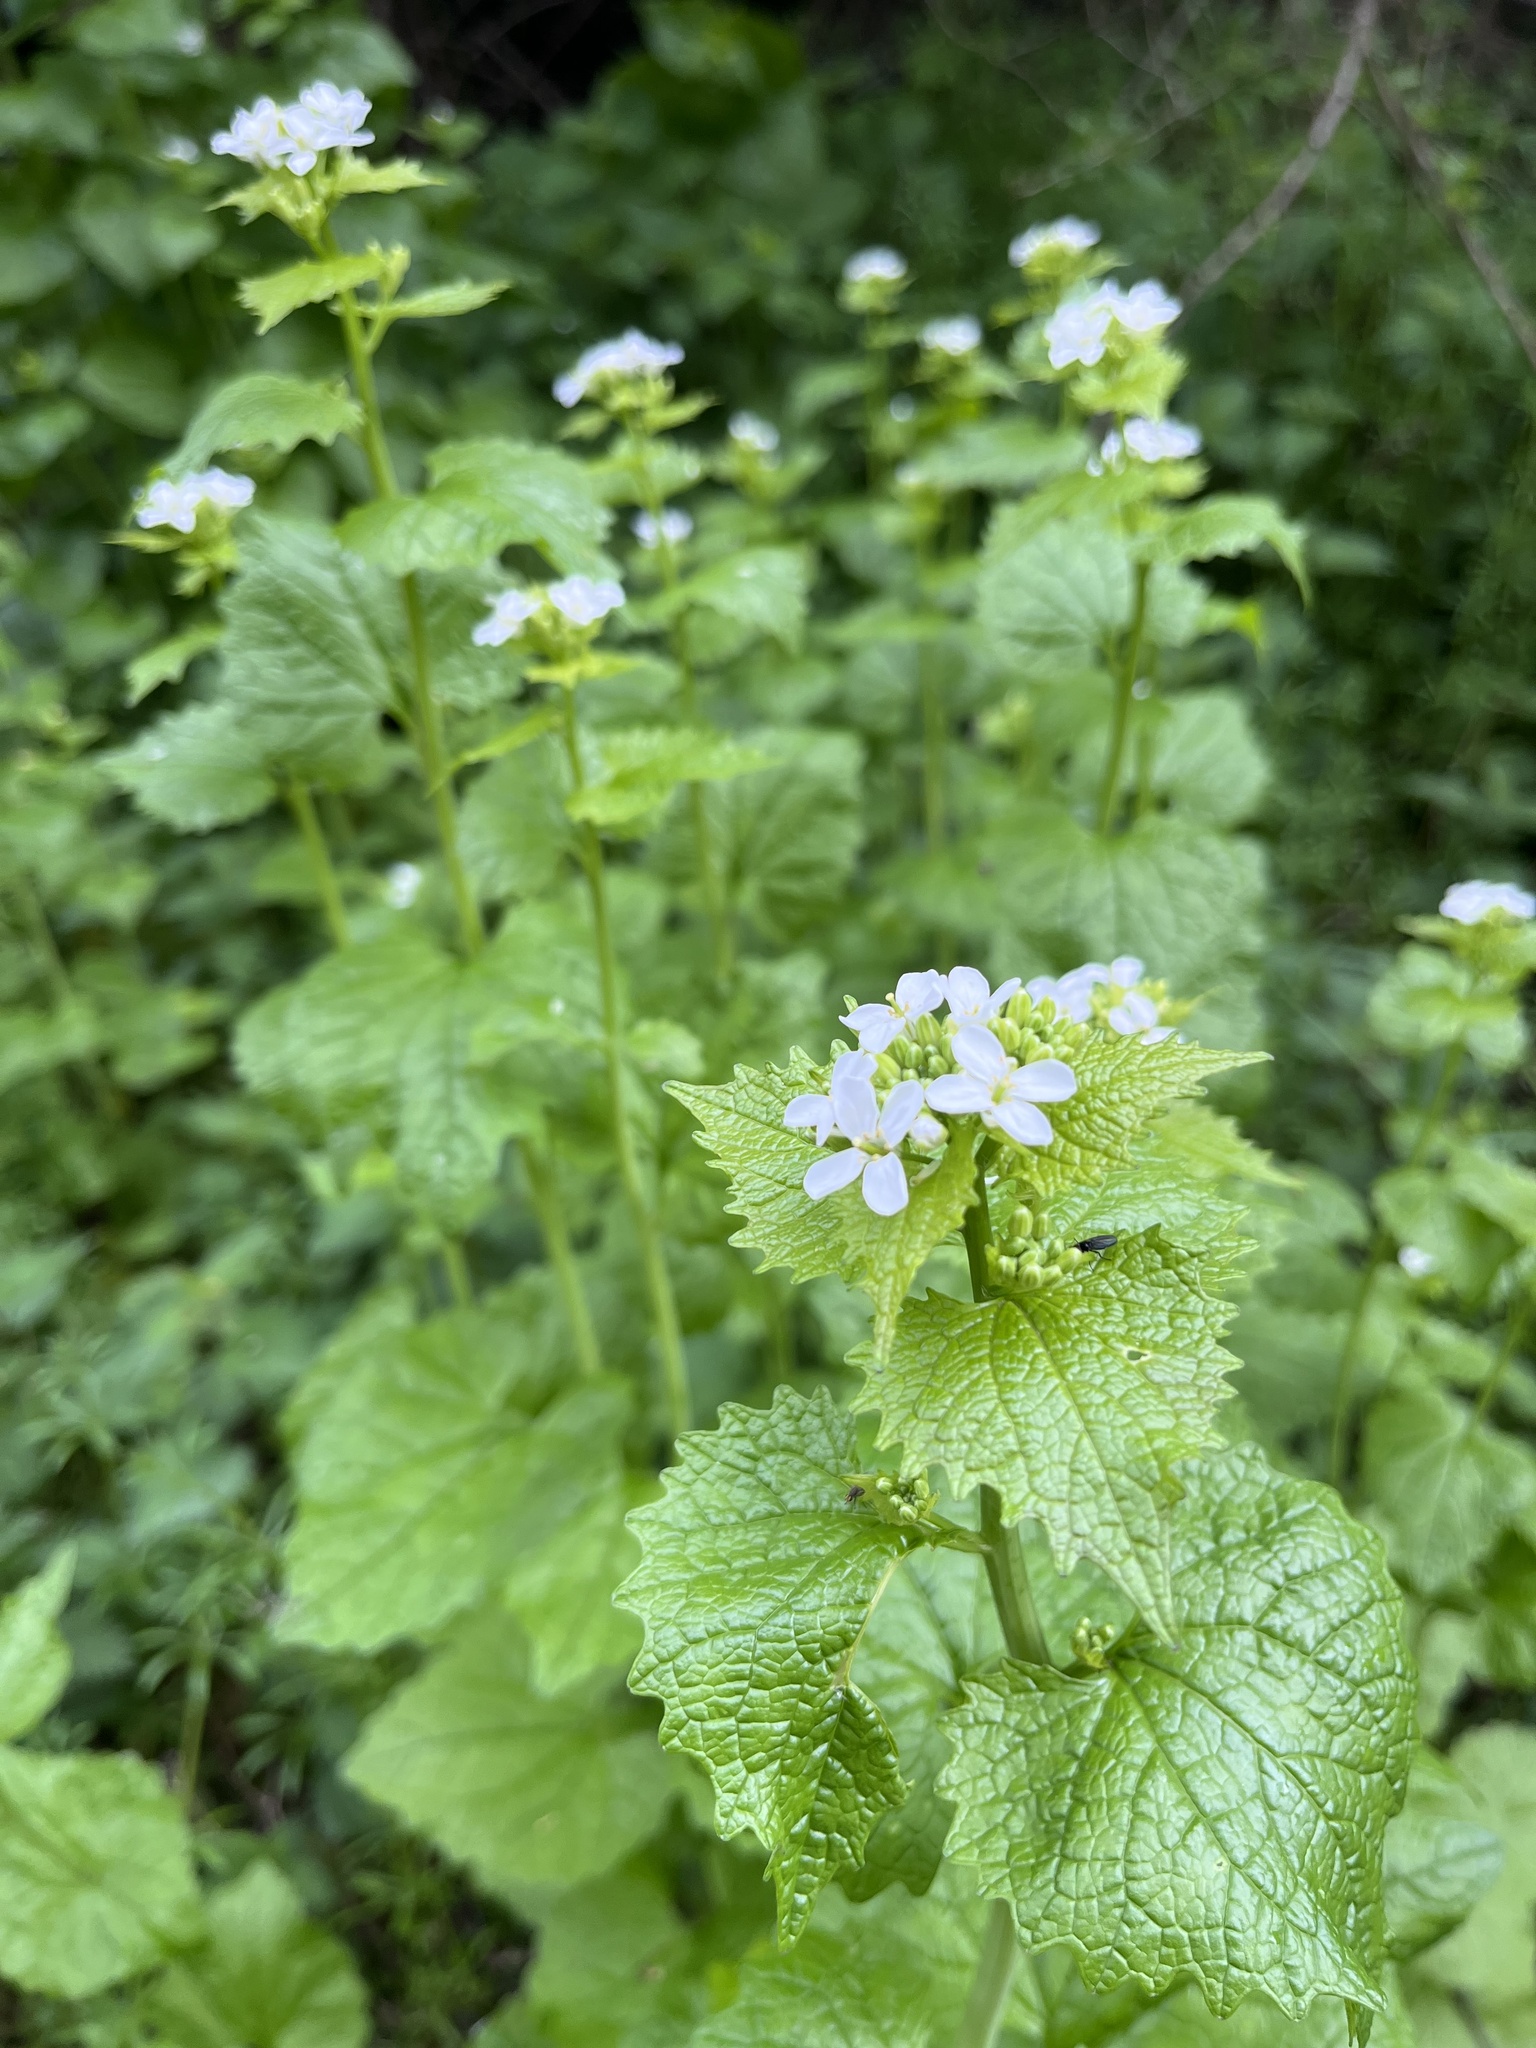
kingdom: Plantae
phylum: Tracheophyta
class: Magnoliopsida
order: Brassicales
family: Brassicaceae
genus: Alliaria
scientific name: Alliaria petiolata
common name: Garlic mustard
